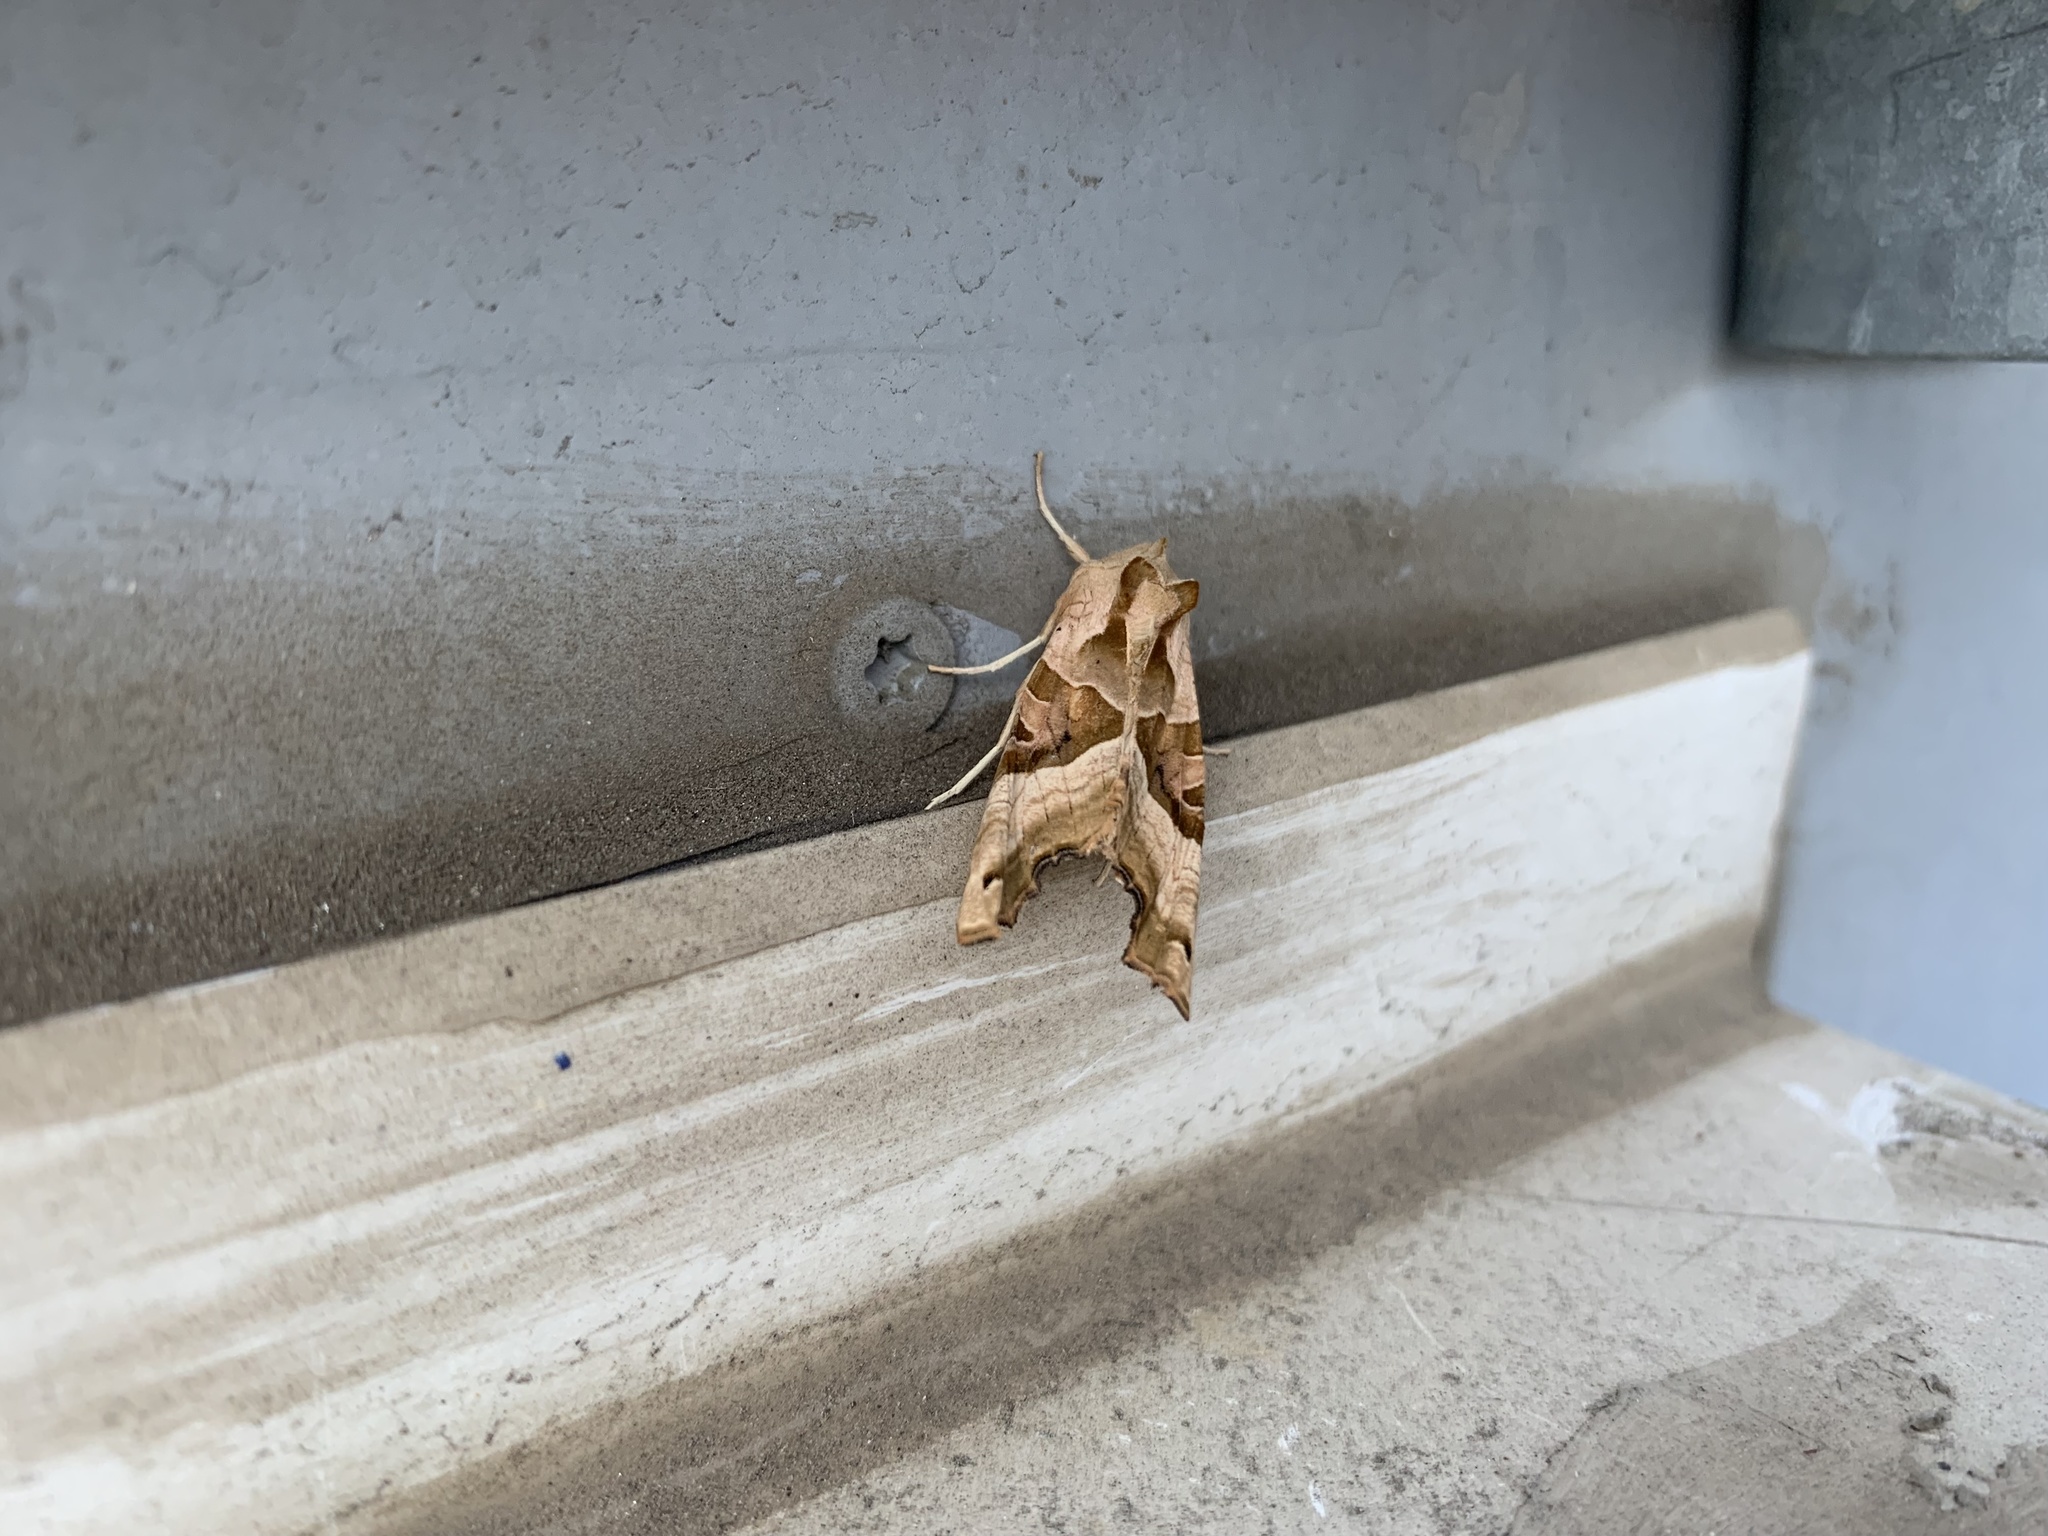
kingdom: Animalia
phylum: Arthropoda
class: Insecta
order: Lepidoptera
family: Noctuidae
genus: Phlogophora
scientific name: Phlogophora meticulosa
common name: Angle shades
